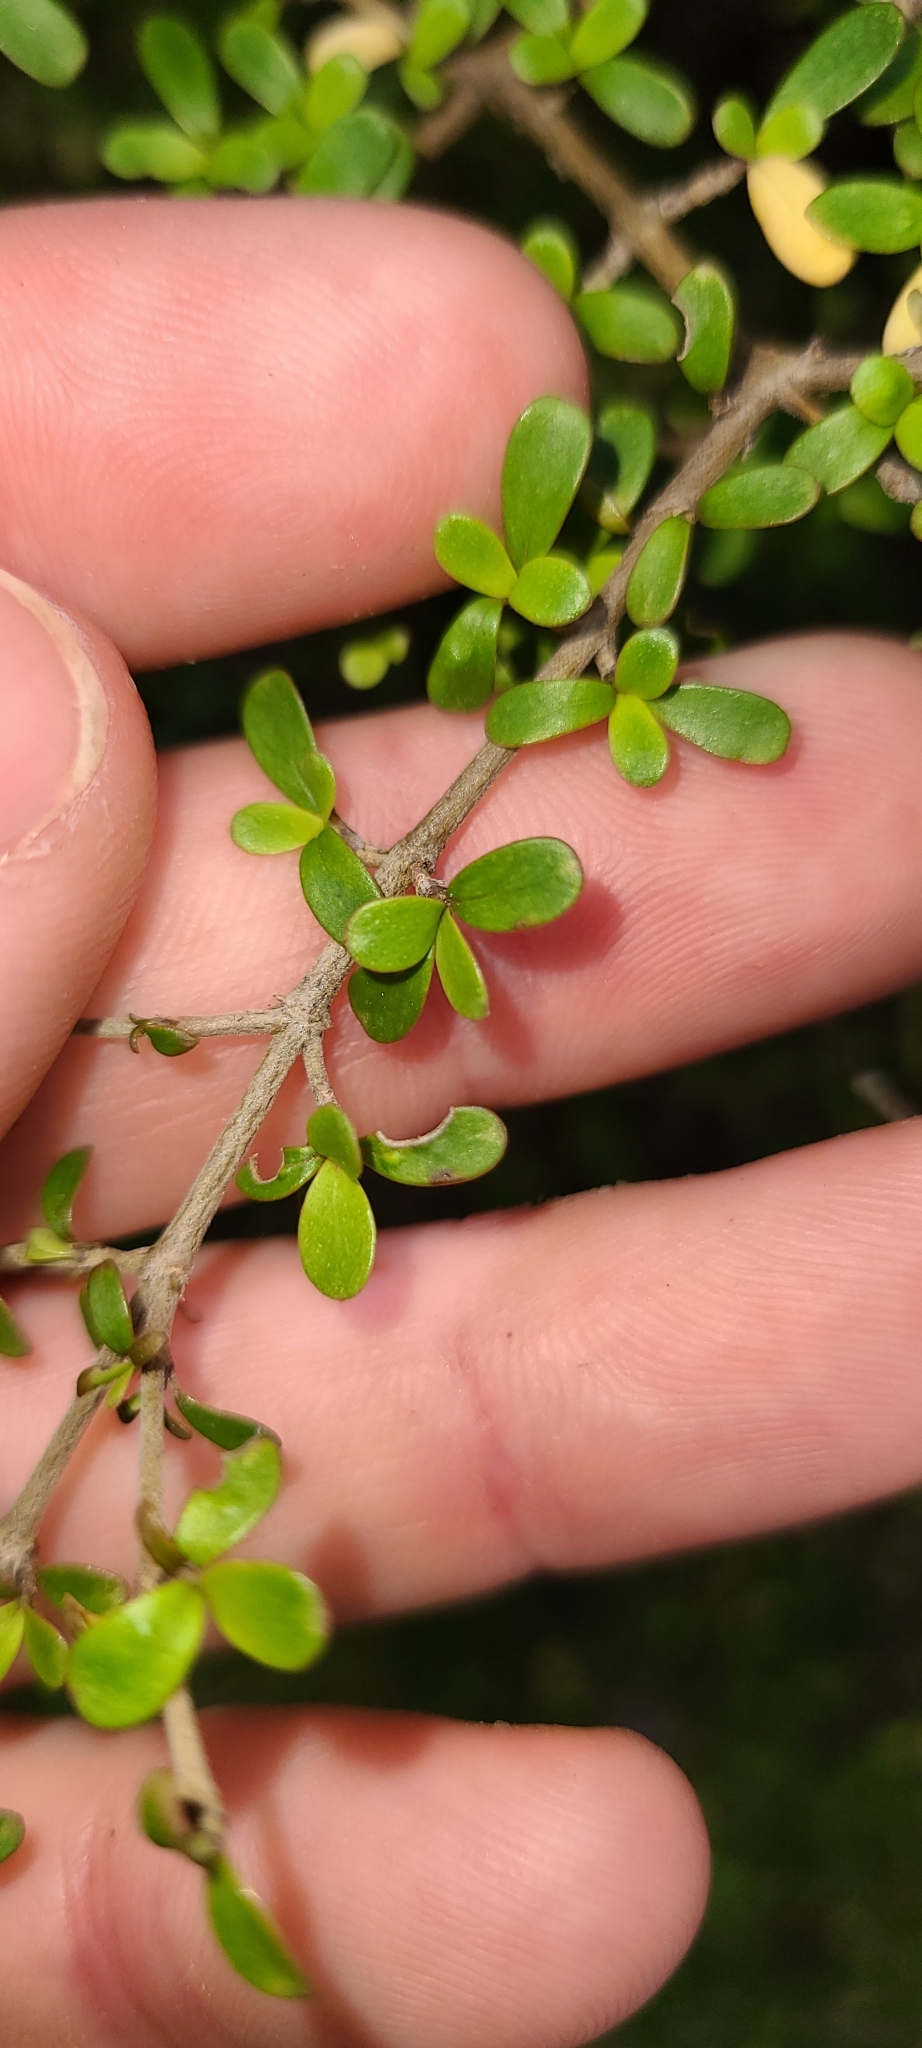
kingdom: Animalia
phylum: Arthropoda
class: Arachnida
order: Trombidiformes
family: Eriophyidae
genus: Acalitus
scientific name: Acalitus
